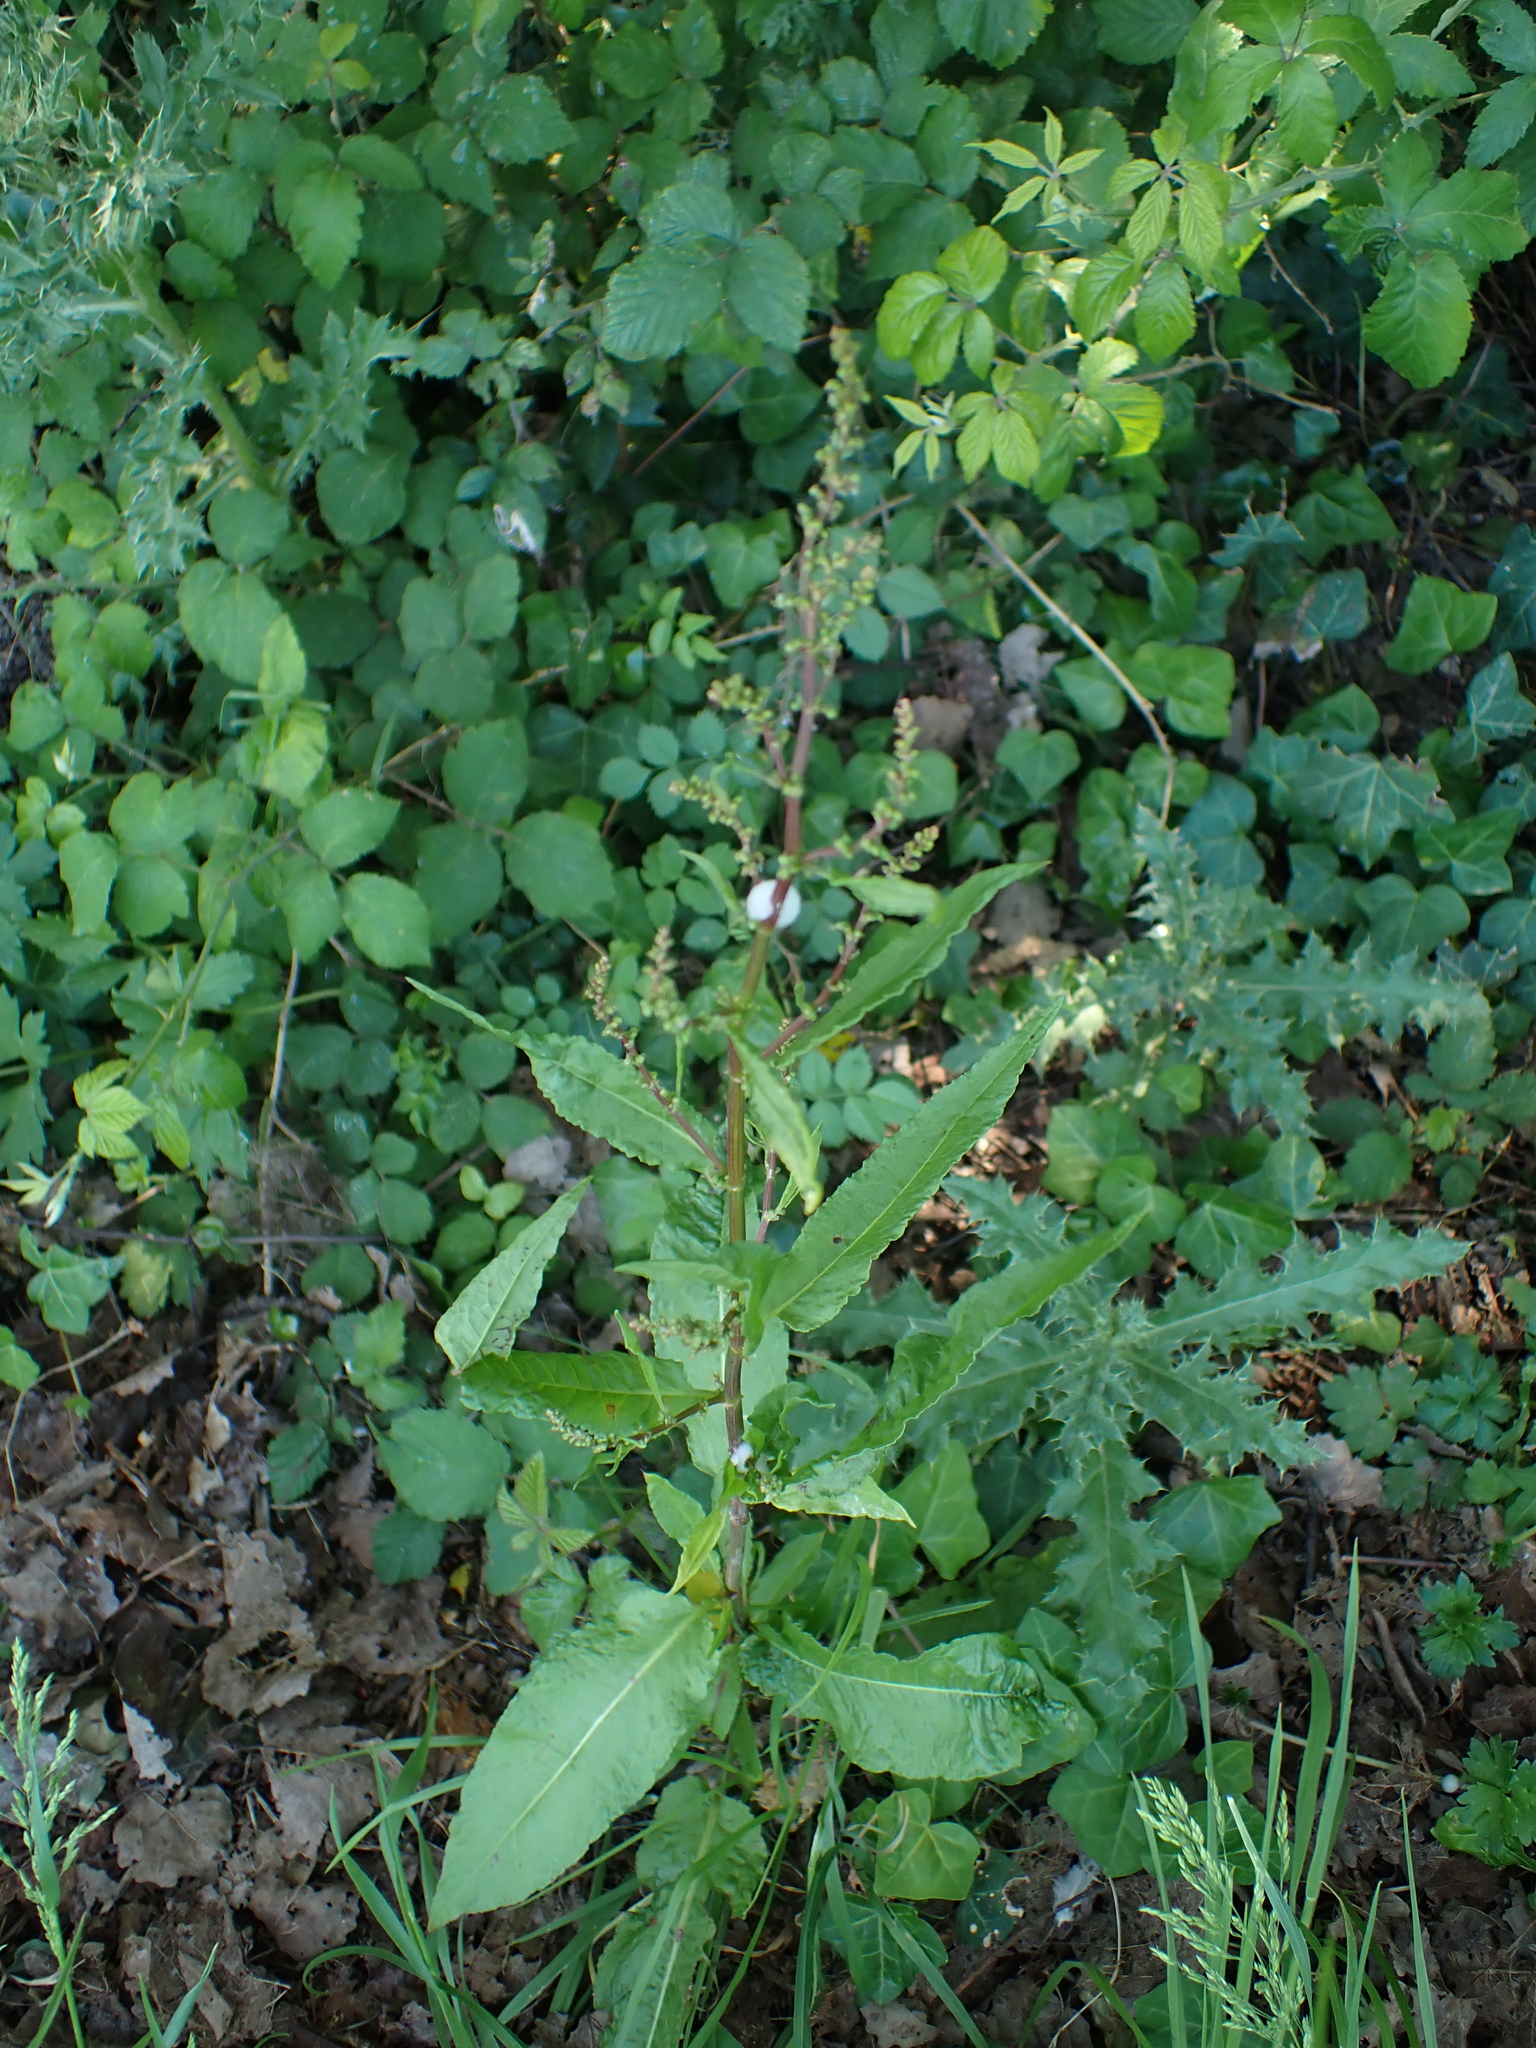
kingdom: Plantae
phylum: Tracheophyta
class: Magnoliopsida
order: Caryophyllales
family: Polygonaceae
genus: Rumex
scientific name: Rumex sanguineus
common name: Wood dock
